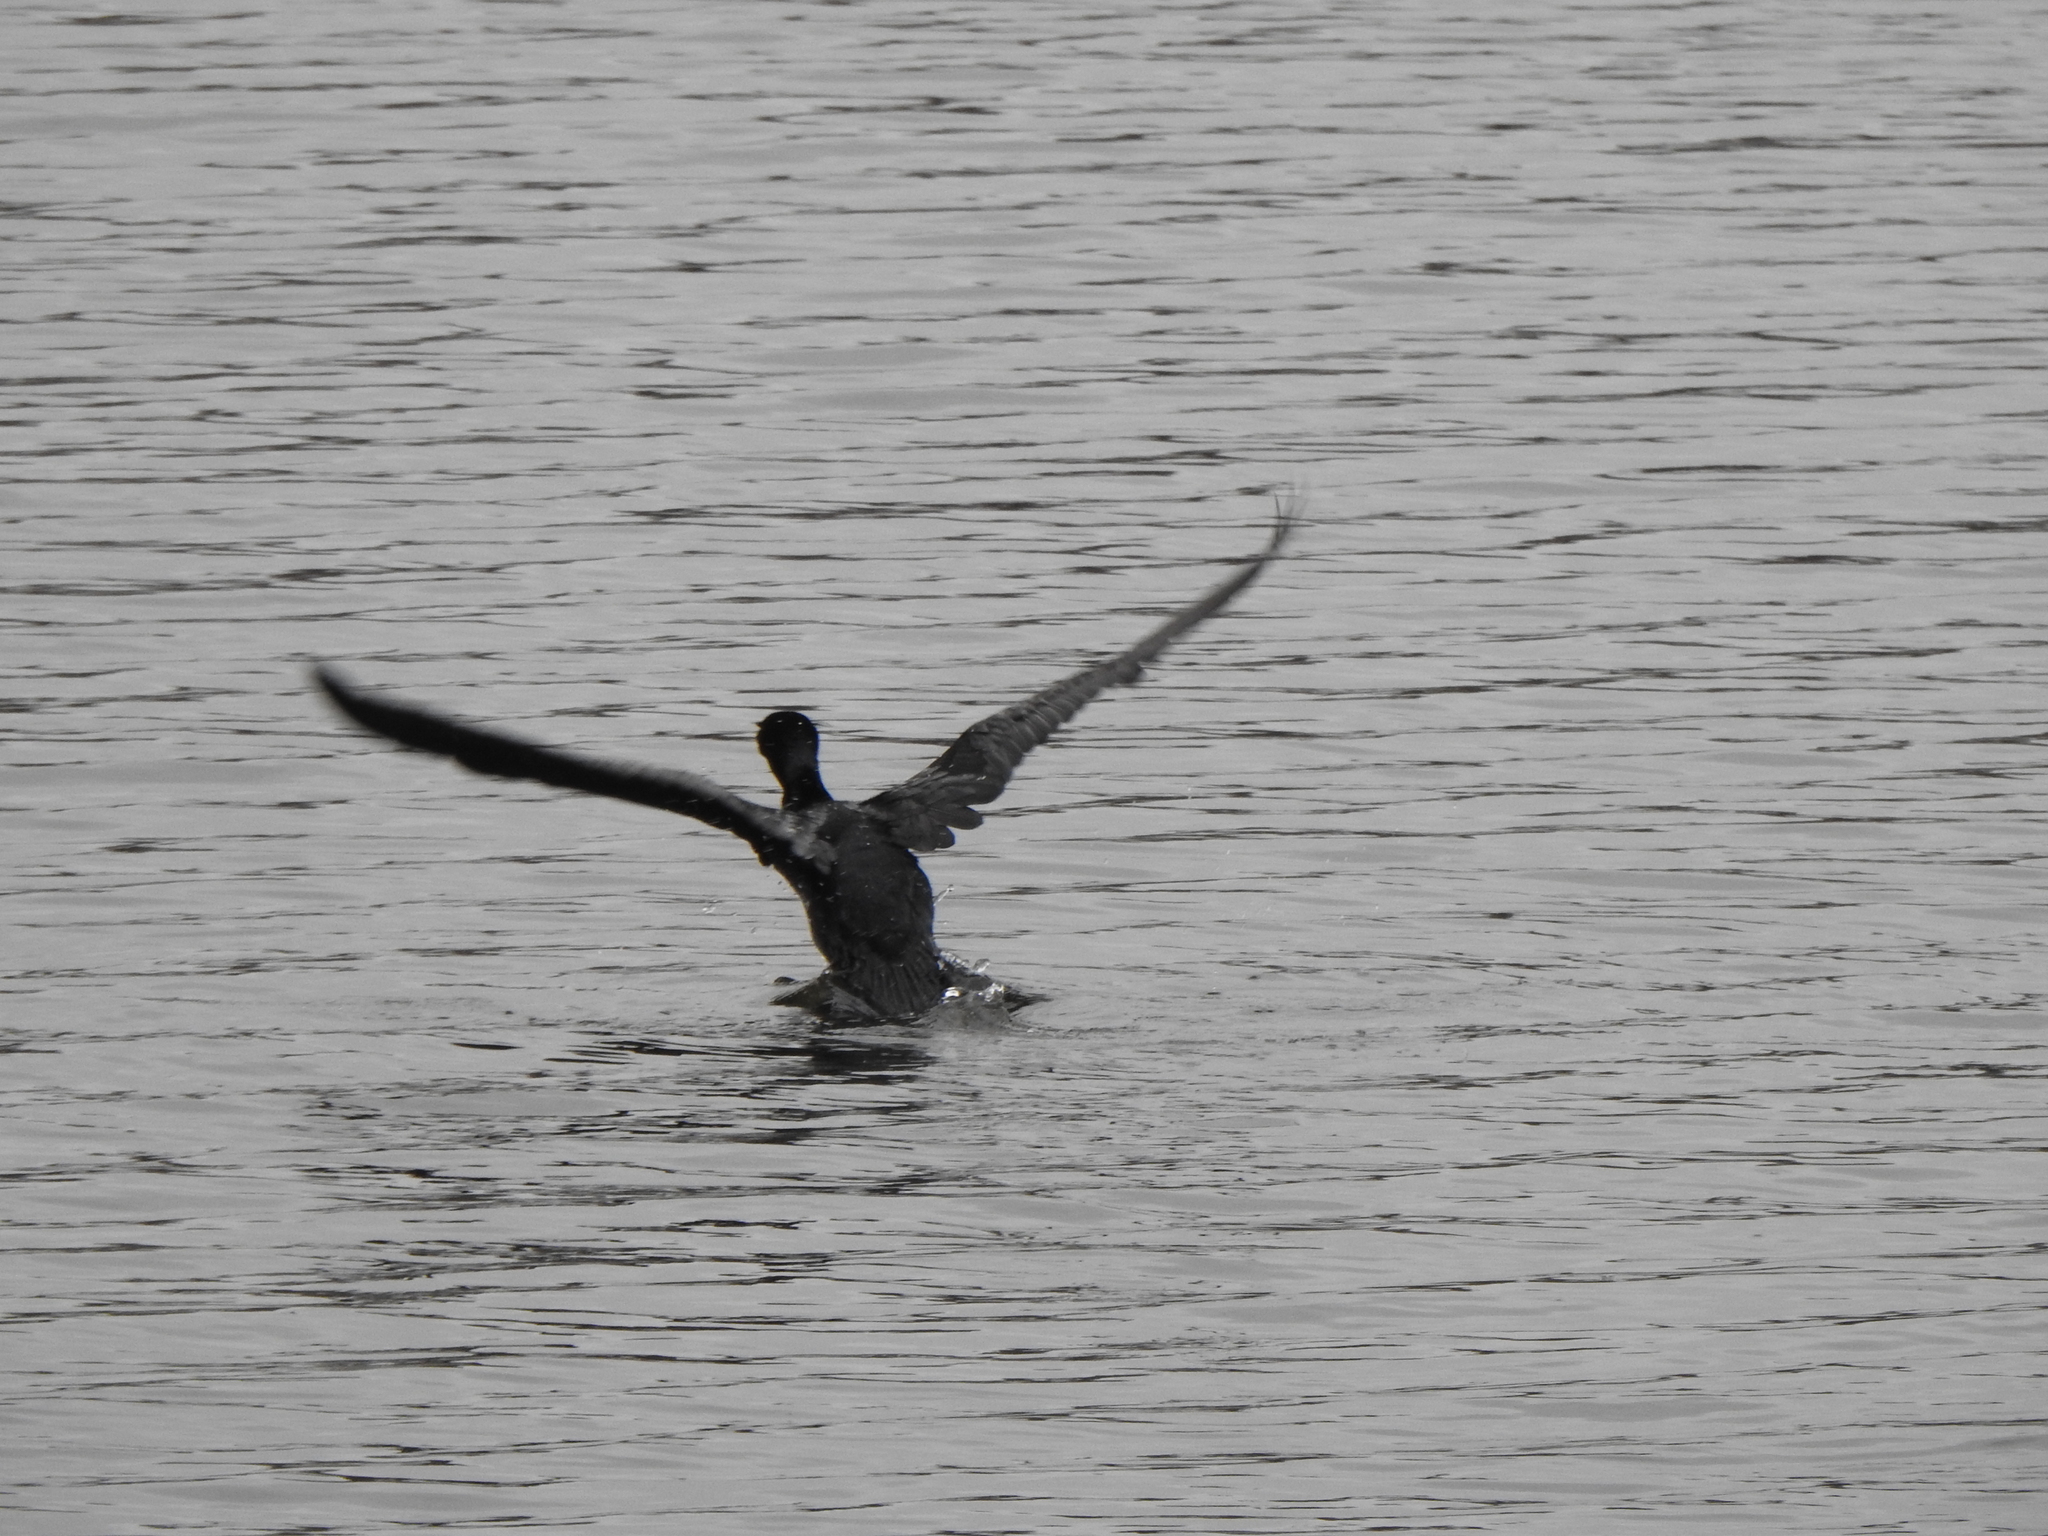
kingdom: Animalia
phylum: Chordata
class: Aves
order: Suliformes
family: Phalacrocoracidae
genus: Phalacrocorax
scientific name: Phalacrocorax auritus
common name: Double-crested cormorant
